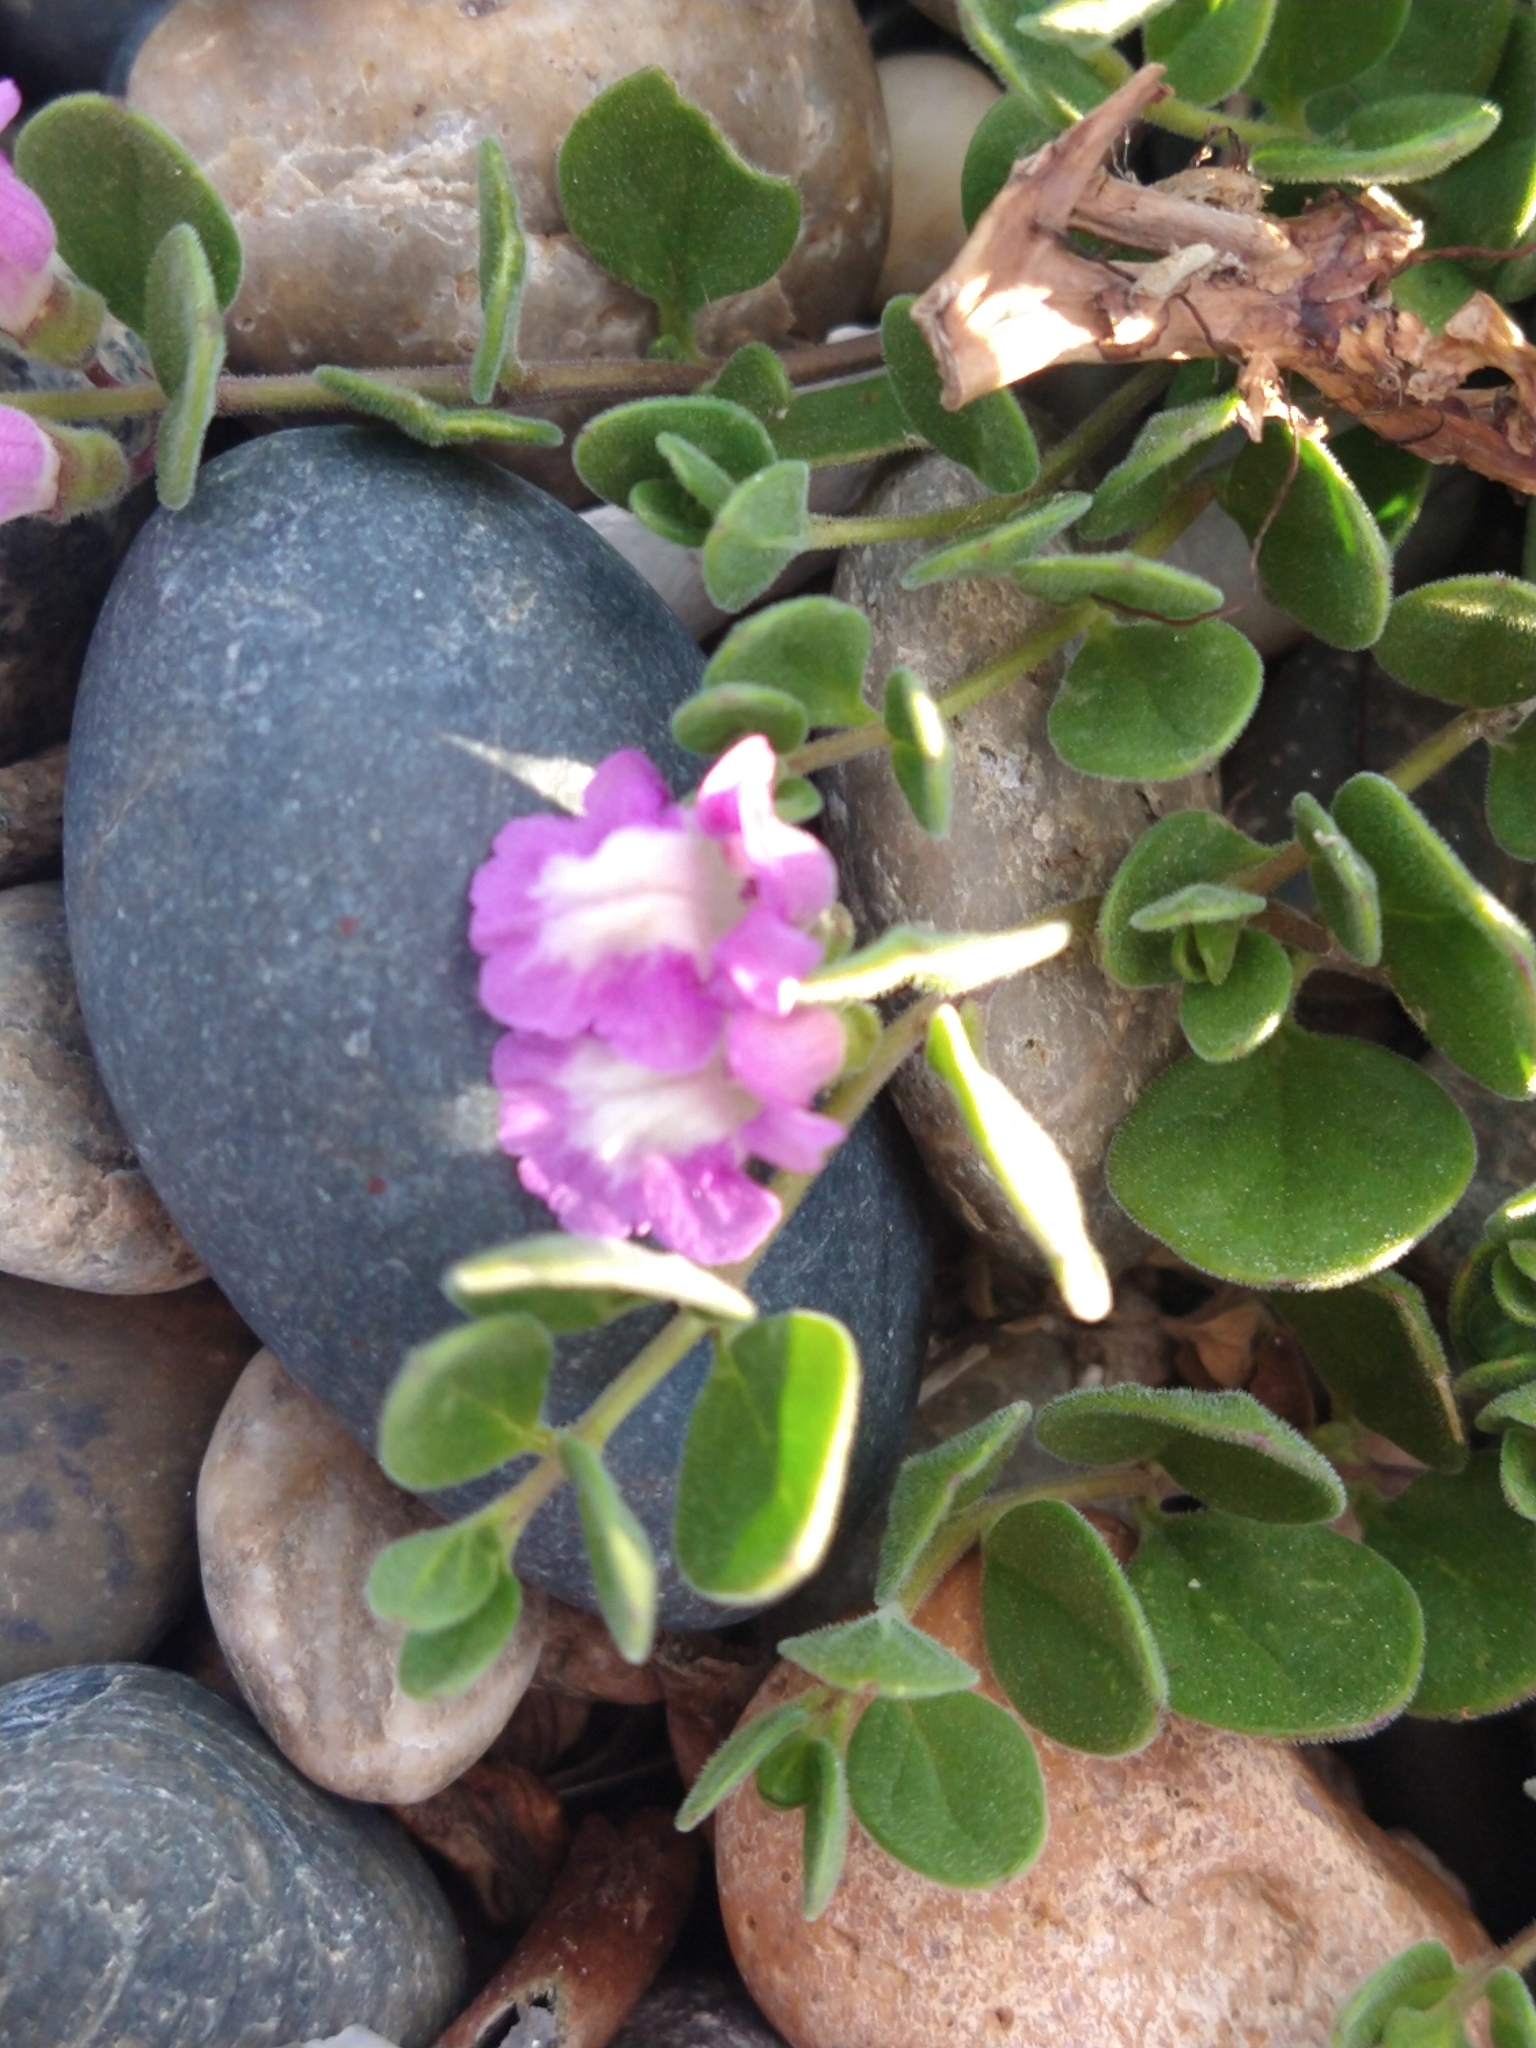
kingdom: Plantae
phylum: Tracheophyta
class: Magnoliopsida
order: Lamiales
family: Lamiaceae
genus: Scutellaria
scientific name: Scutellaria nummulariifolia
